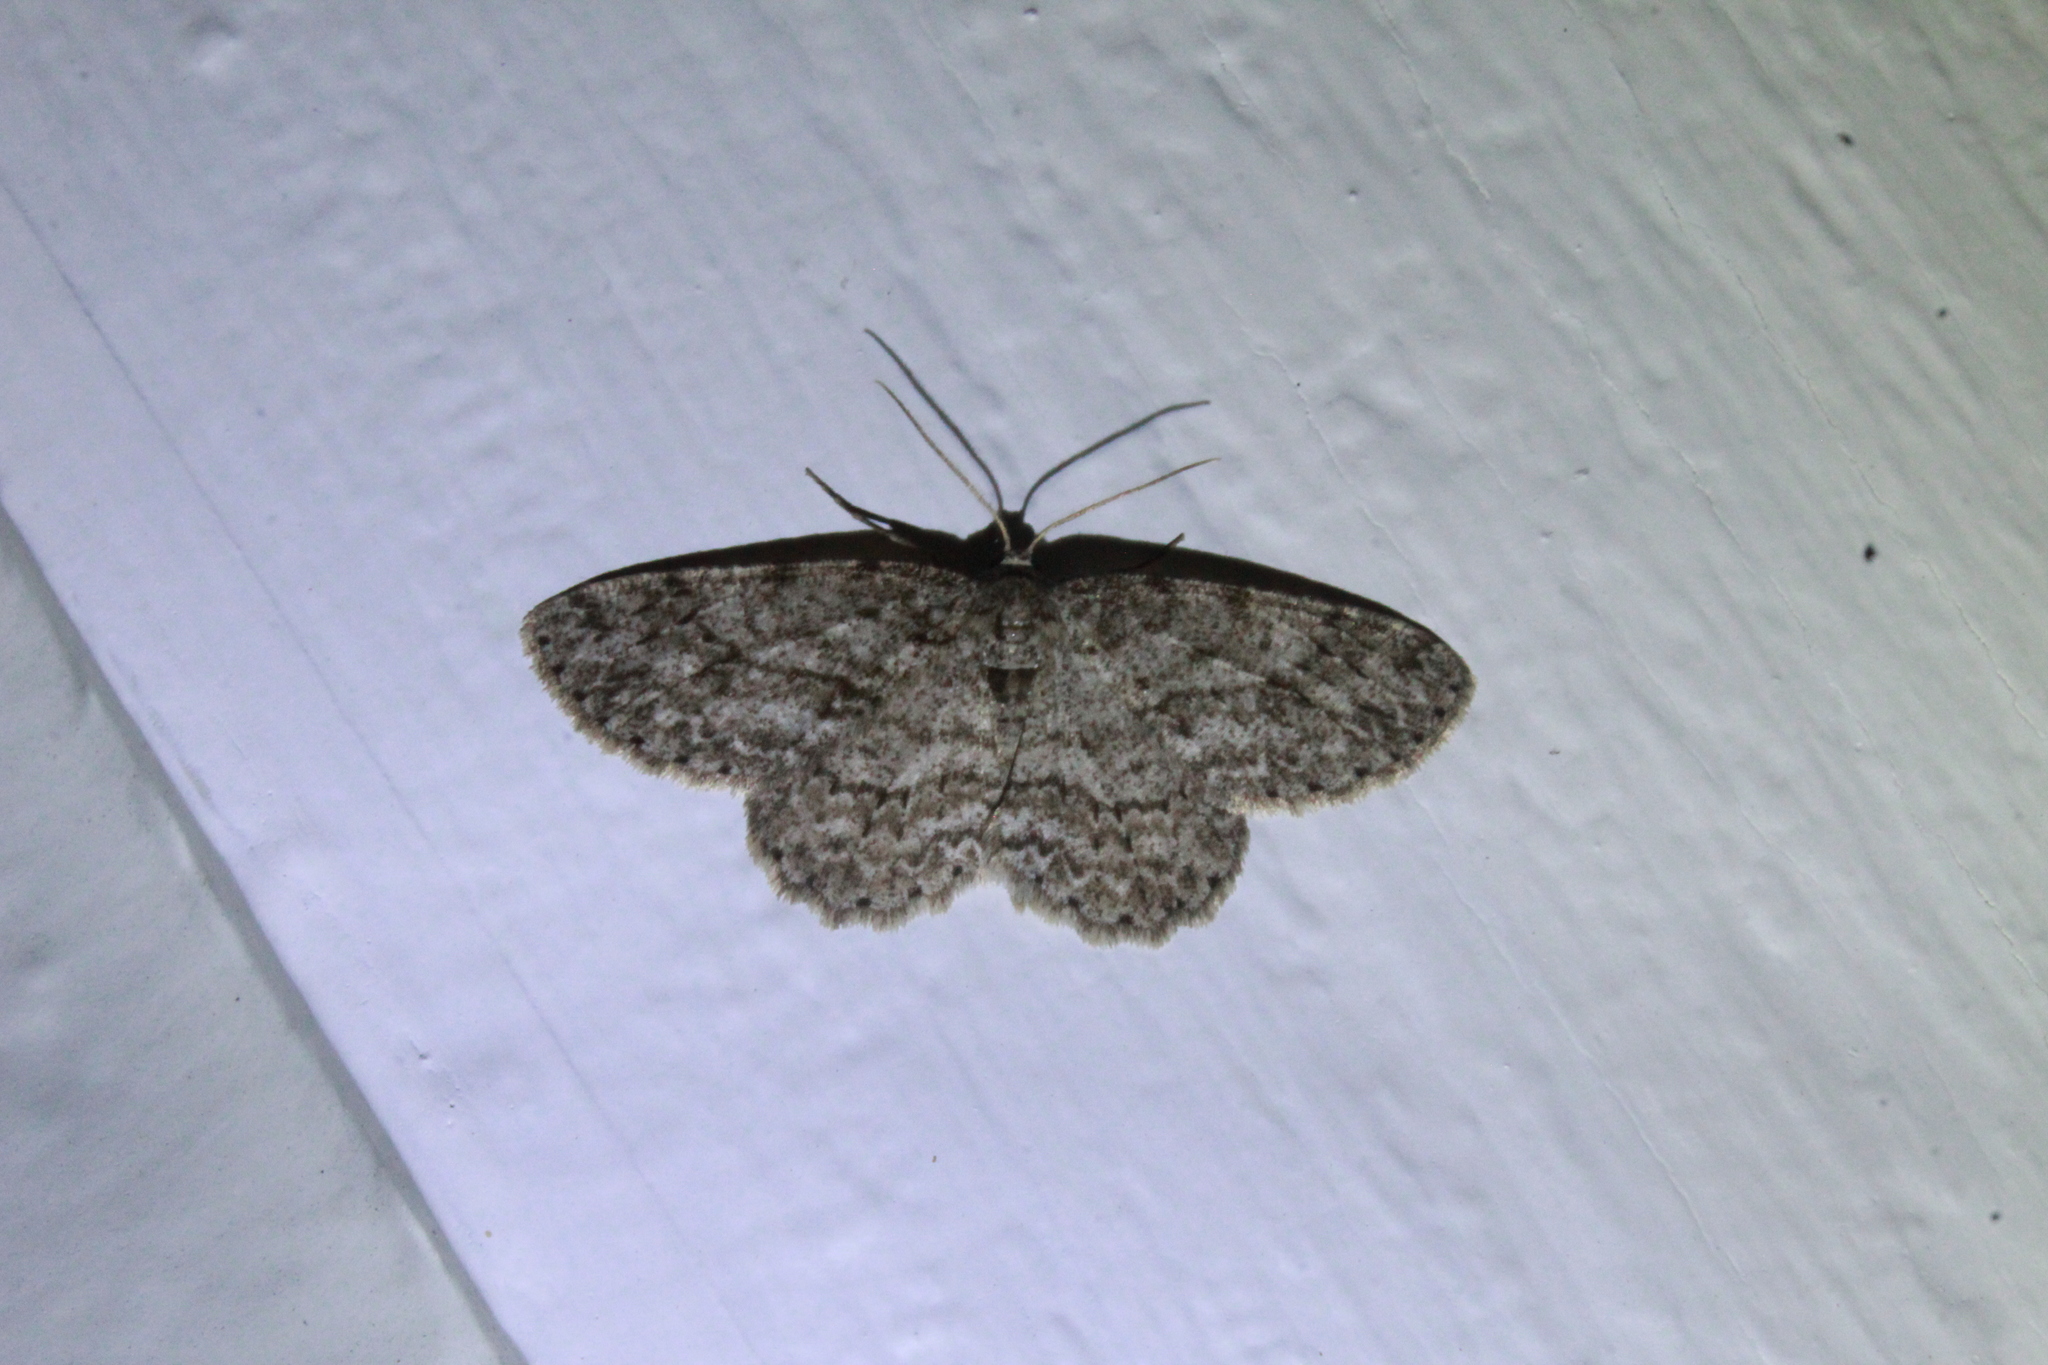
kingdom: Animalia
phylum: Arthropoda
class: Insecta
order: Lepidoptera
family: Geometridae
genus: Ectropis
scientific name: Ectropis crepuscularia
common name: Engrailed
